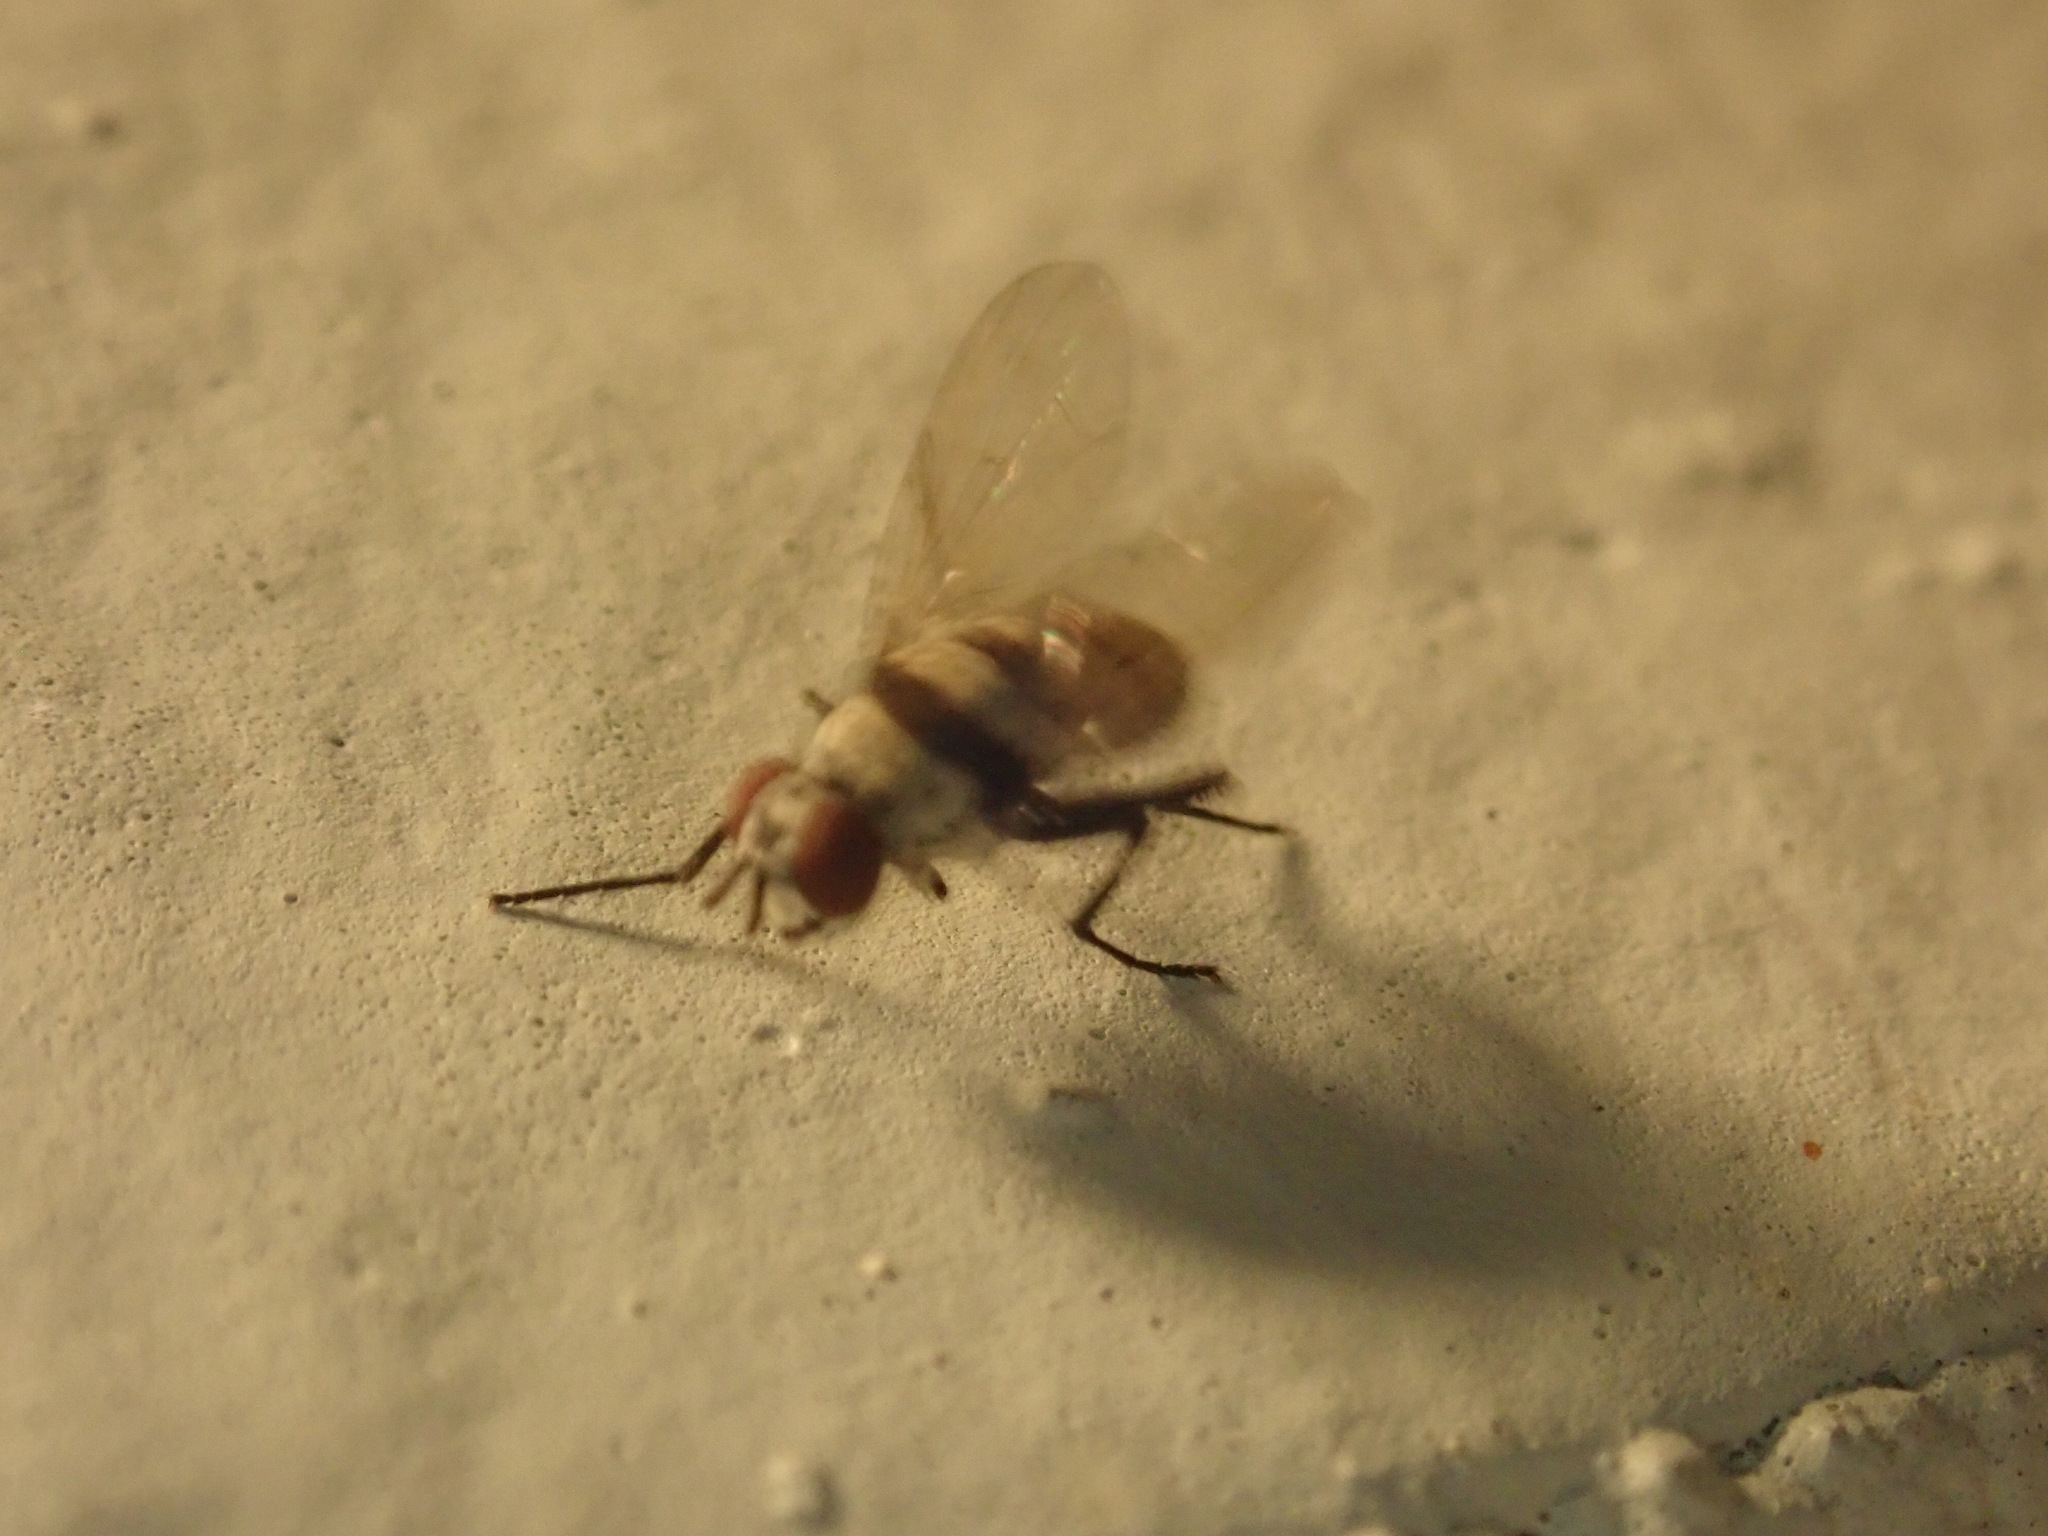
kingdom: Animalia
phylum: Arthropoda
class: Insecta
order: Diptera
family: Anthomyiidae
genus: Anthomyia
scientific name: Anthomyia illocata
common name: Fly
